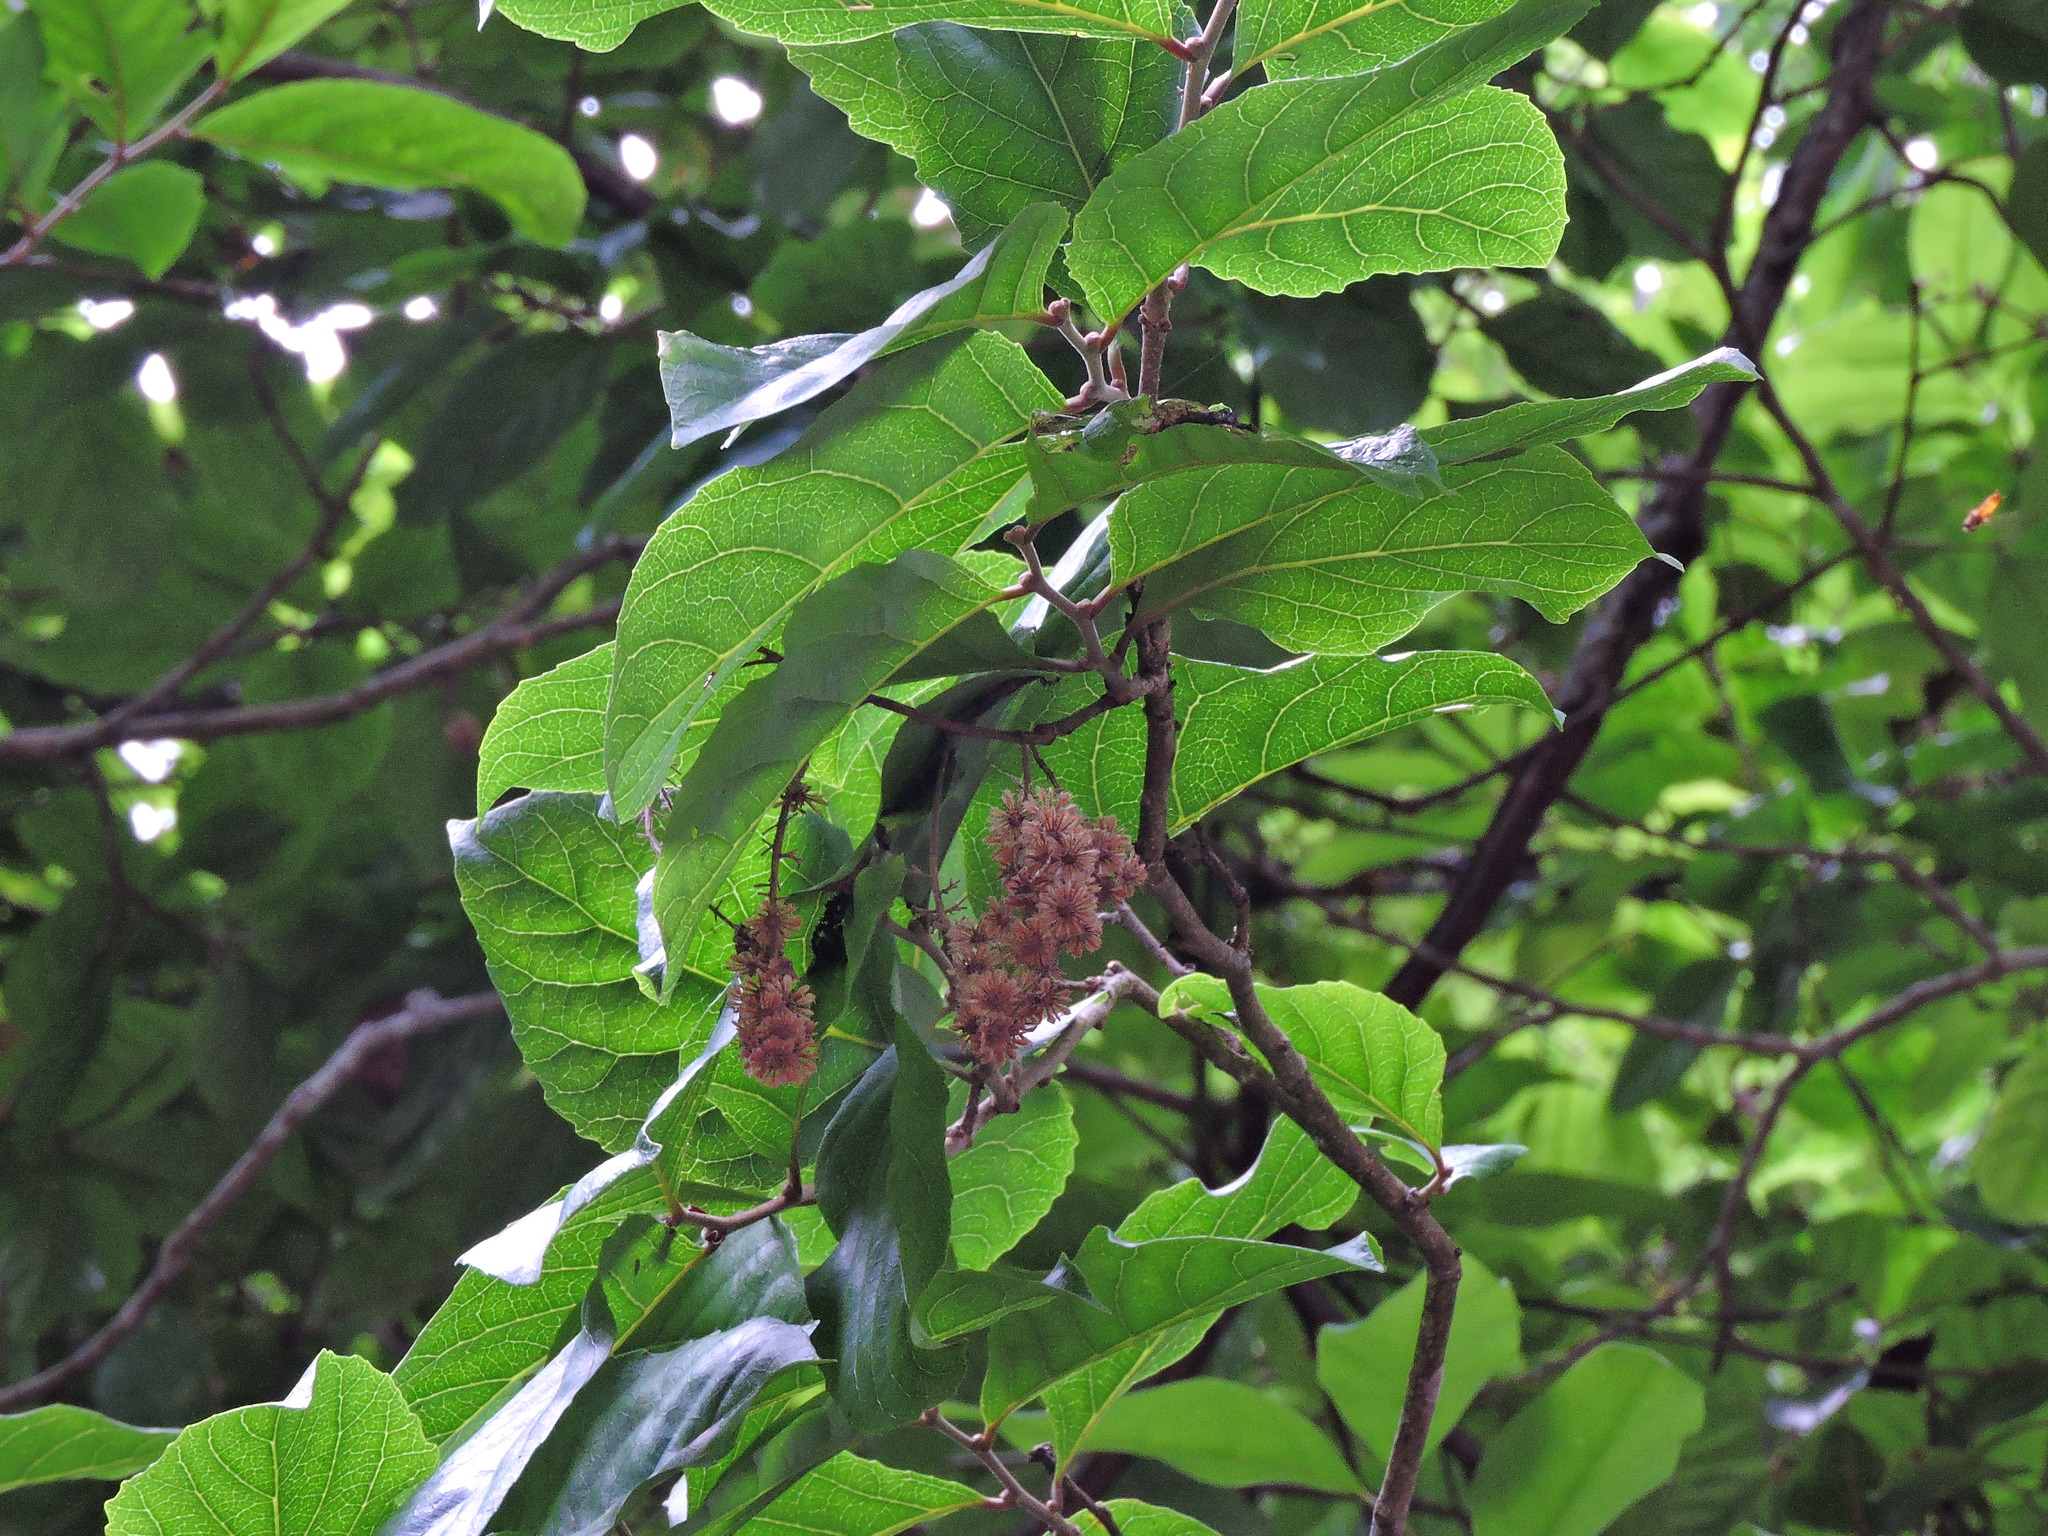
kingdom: Plantae
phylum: Tracheophyta
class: Magnoliopsida
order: Malpighiales
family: Salicaceae
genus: Homalium
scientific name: Homalium cochinchinensis
